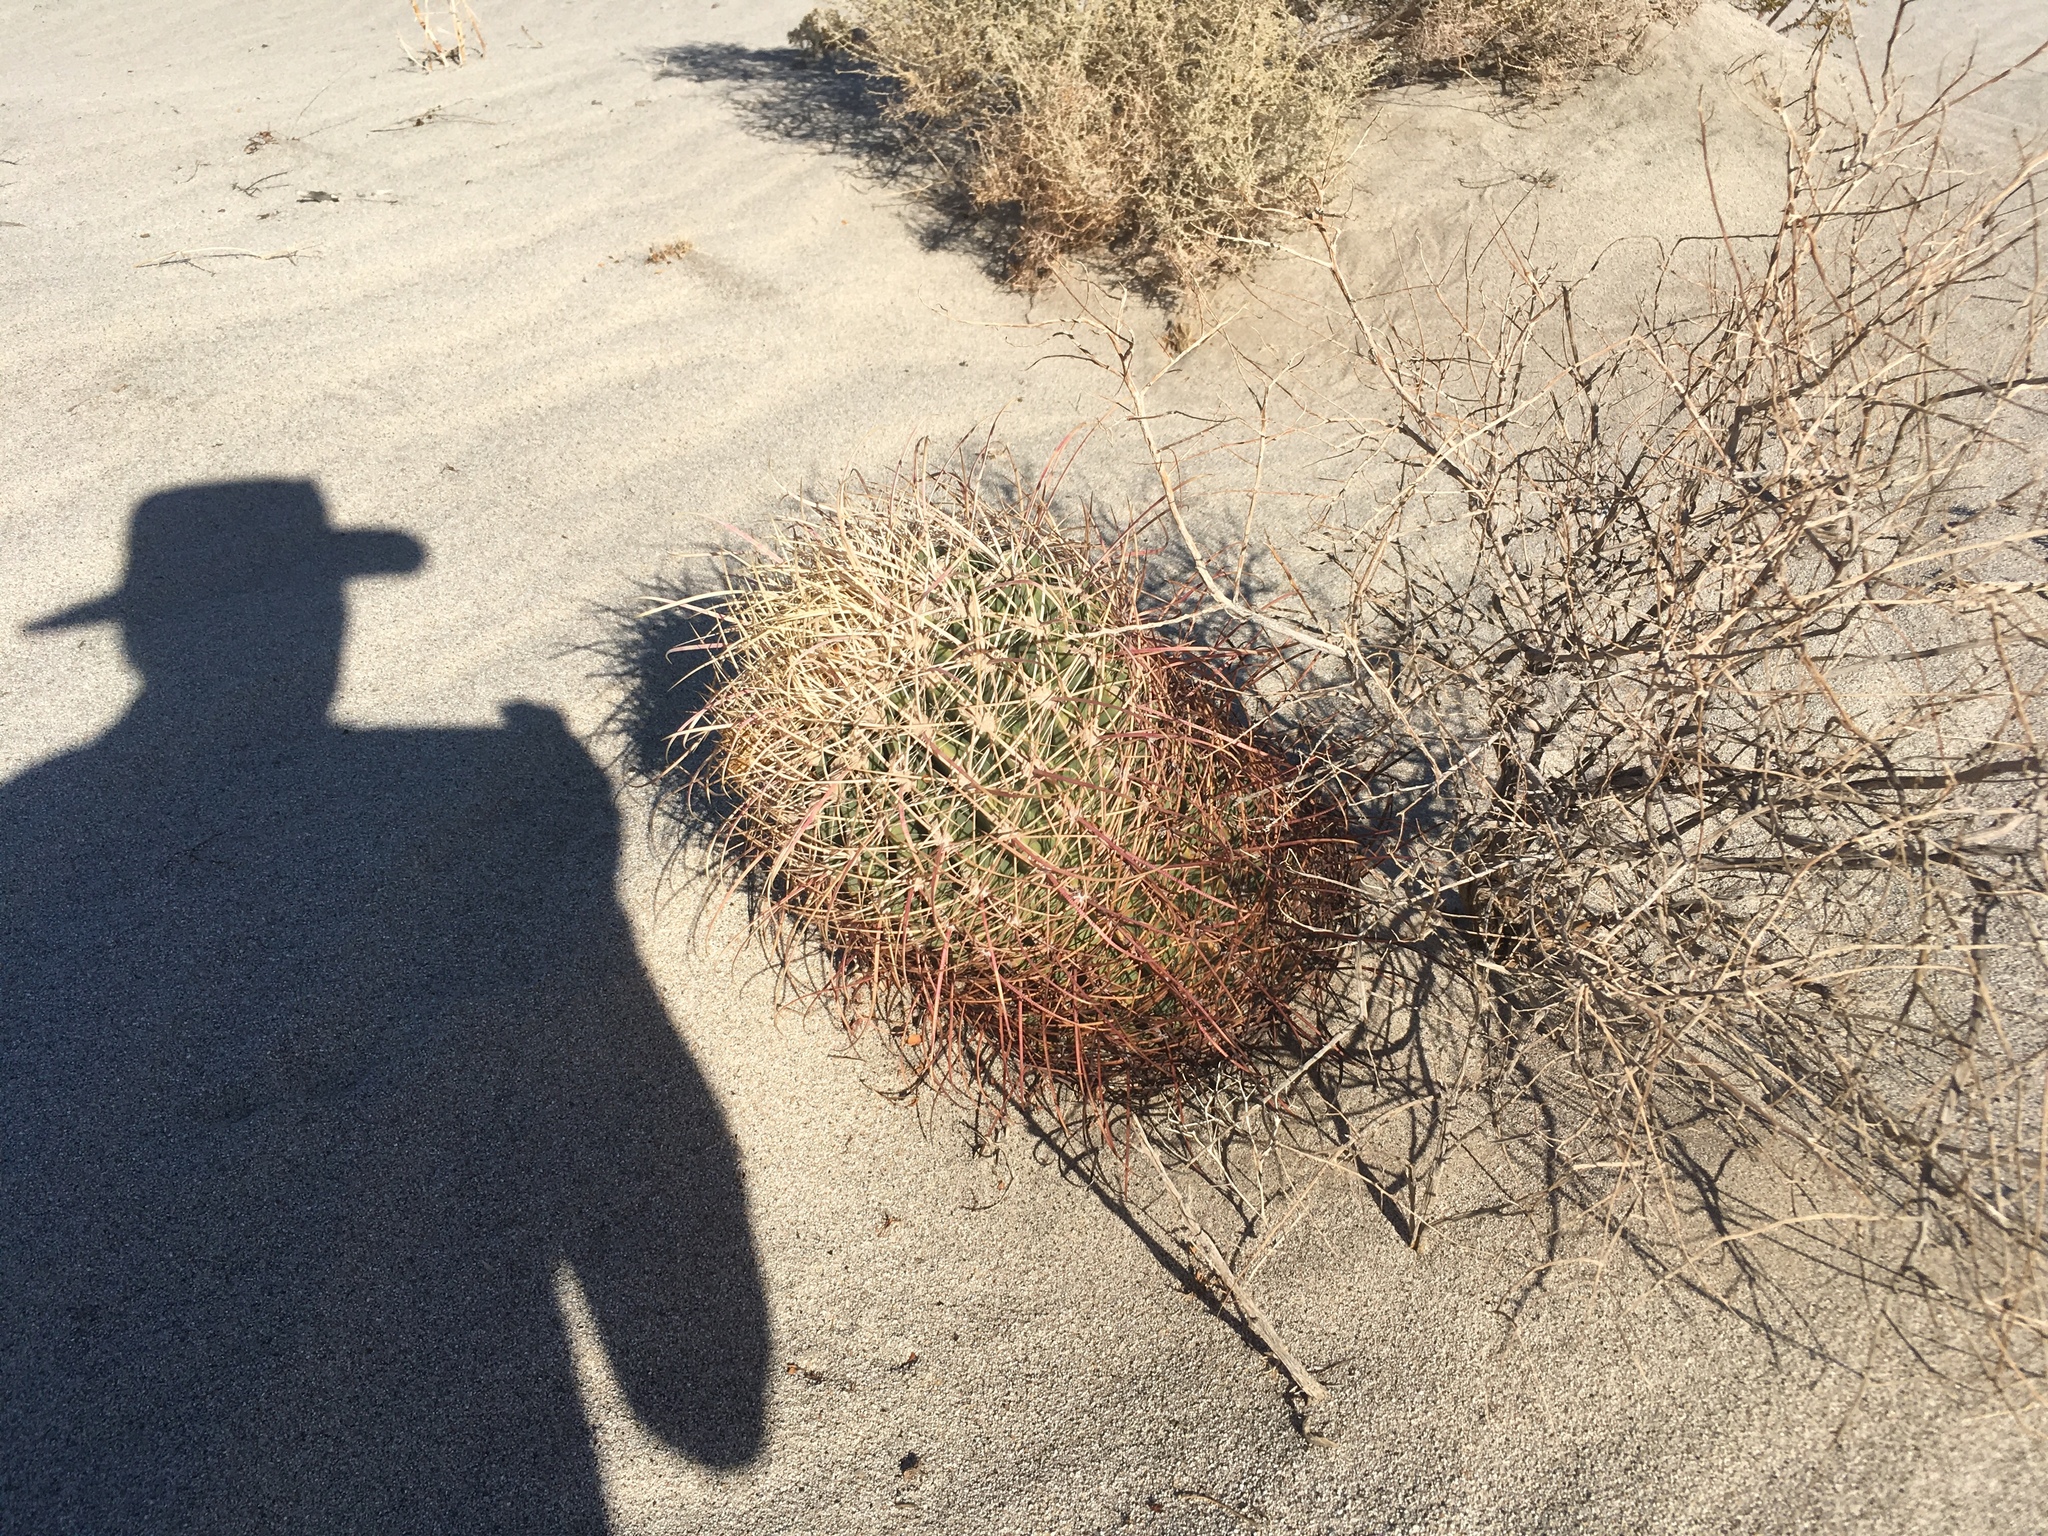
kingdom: Plantae
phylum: Tracheophyta
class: Magnoliopsida
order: Caryophyllales
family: Cactaceae
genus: Ferocactus
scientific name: Ferocactus cylindraceus
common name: California barrel cactus
